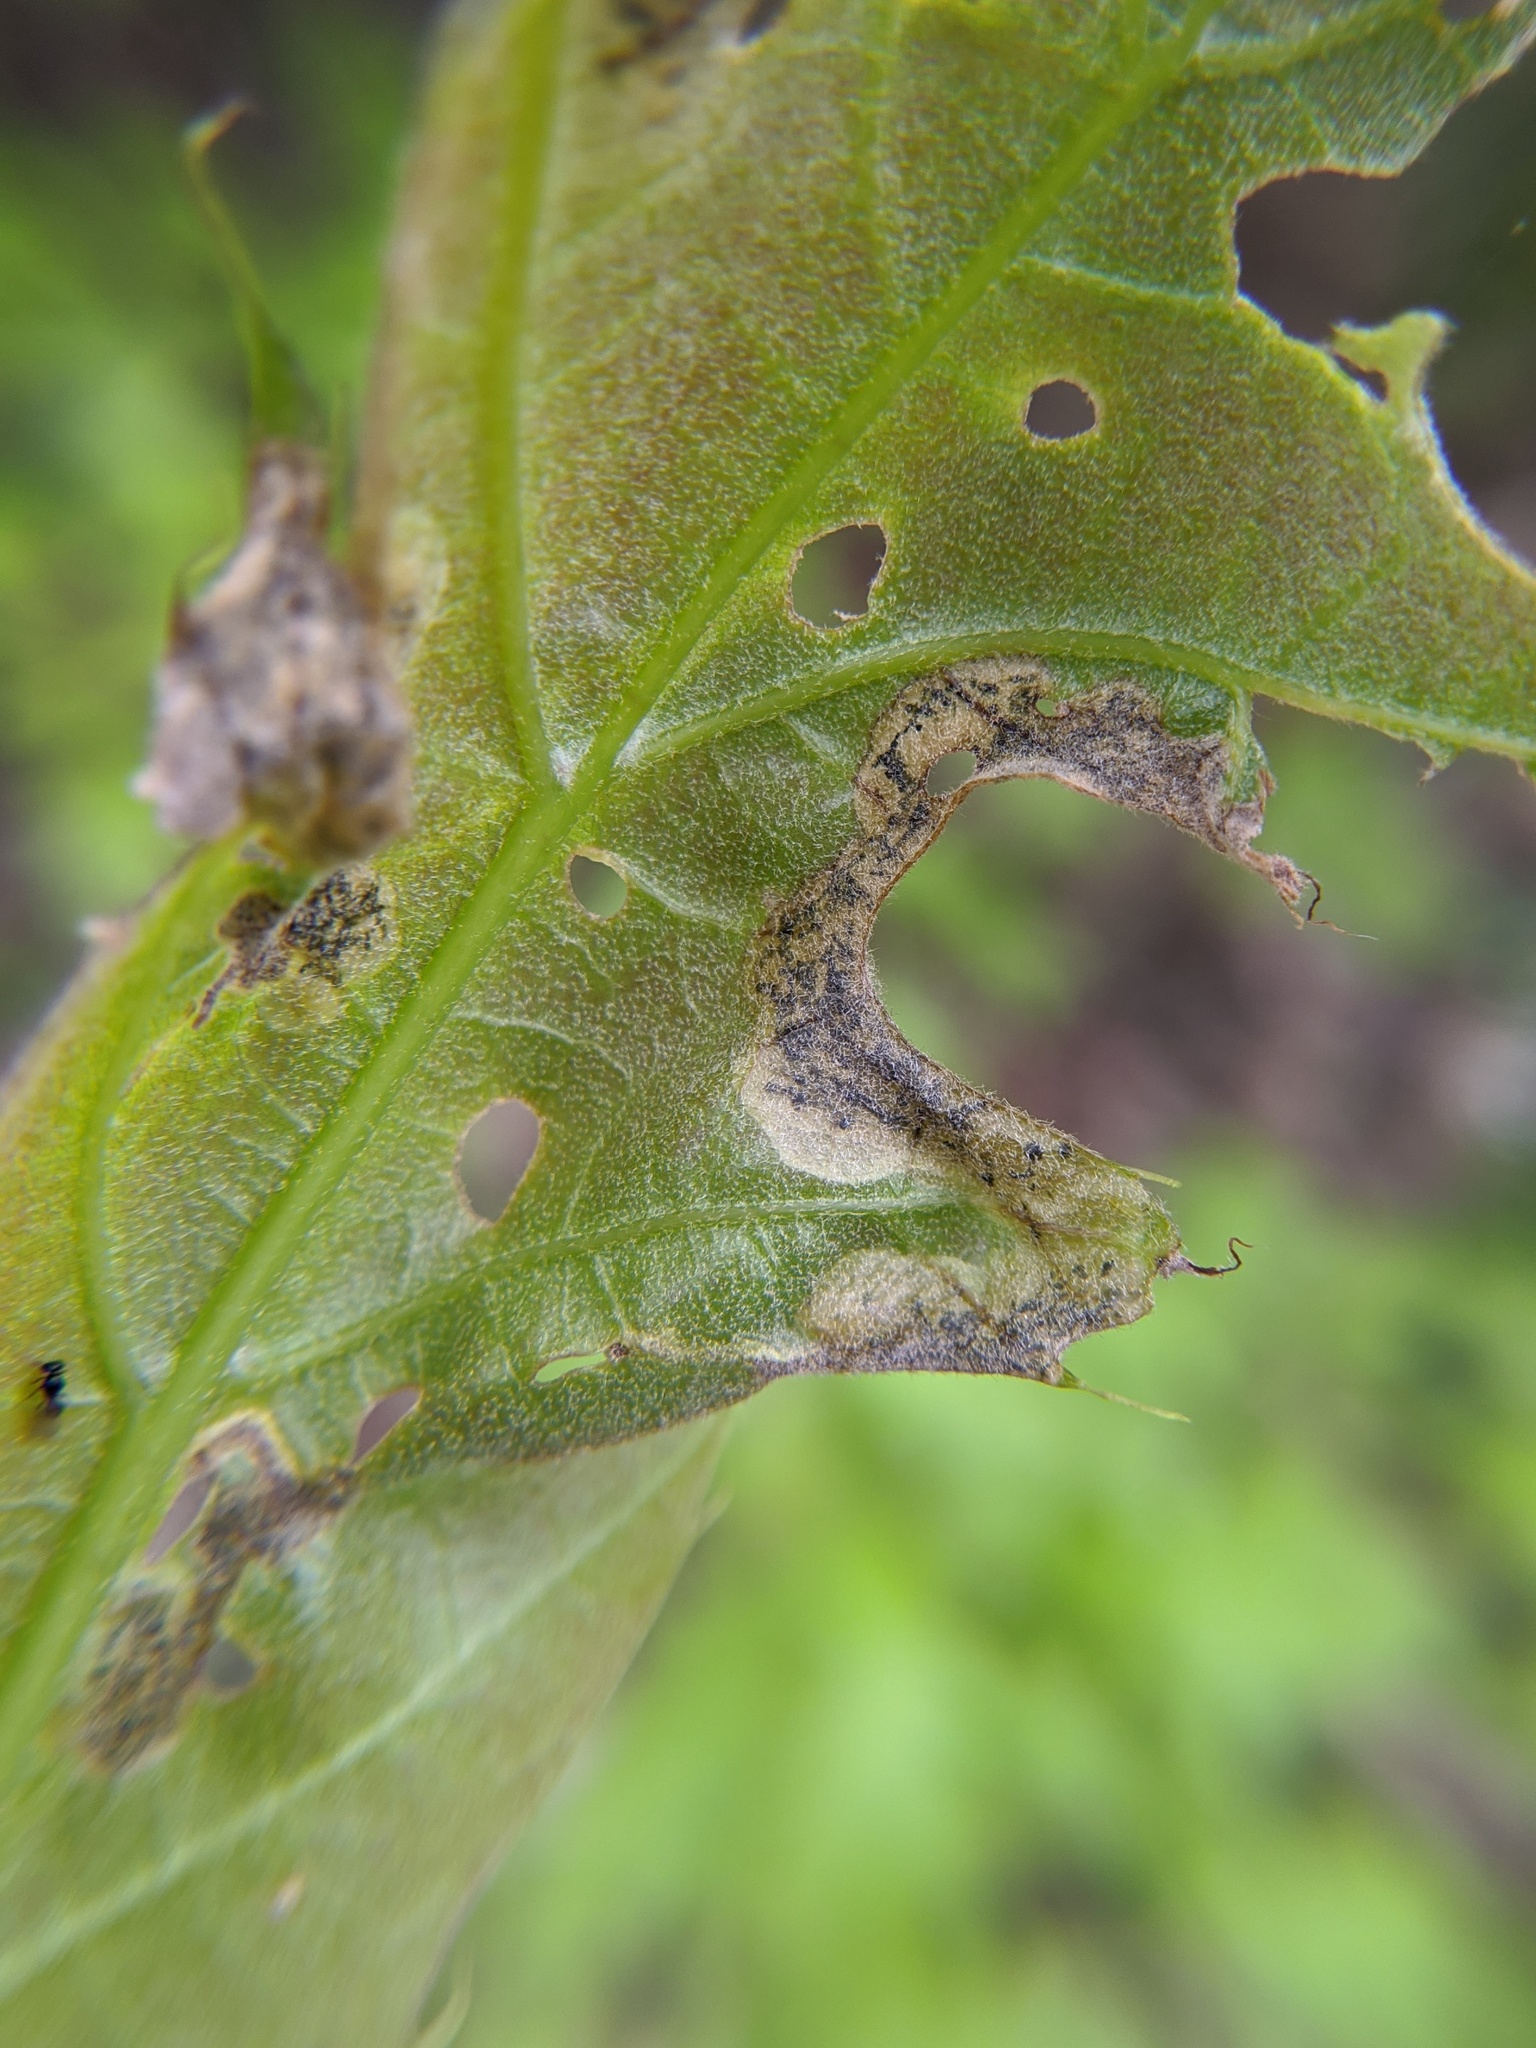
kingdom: Animalia
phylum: Arthropoda
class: Insecta
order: Diptera
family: Agromyzidae
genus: Japanagromyza
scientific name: Japanagromyza viridula
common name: Oak shothole leafminer
